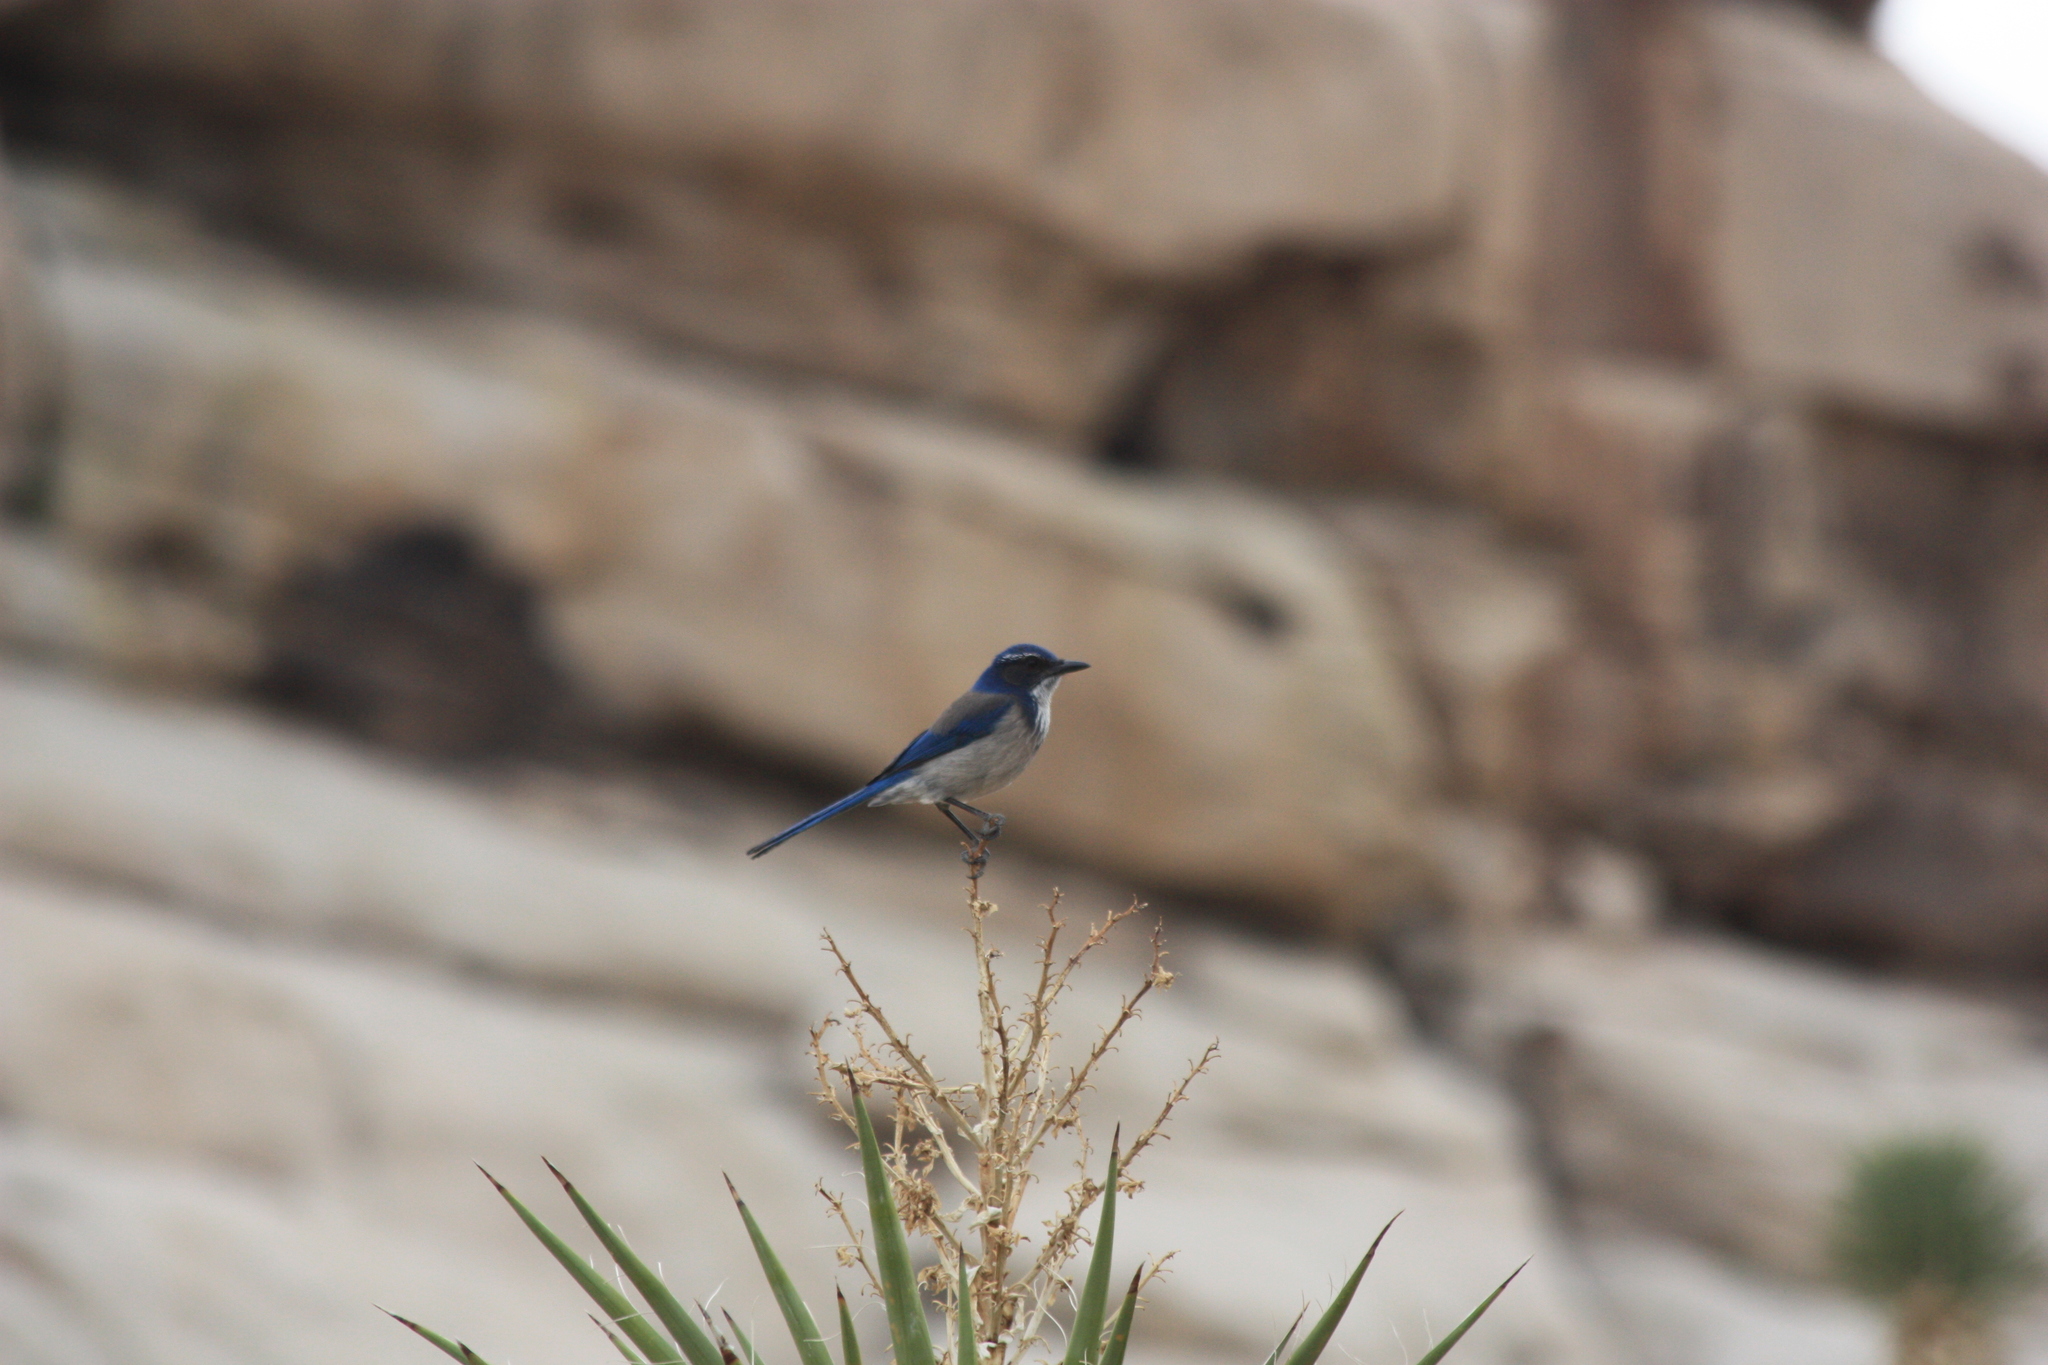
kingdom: Animalia
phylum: Chordata
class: Aves
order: Passeriformes
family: Corvidae
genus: Aphelocoma
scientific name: Aphelocoma californica
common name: California scrub-jay
